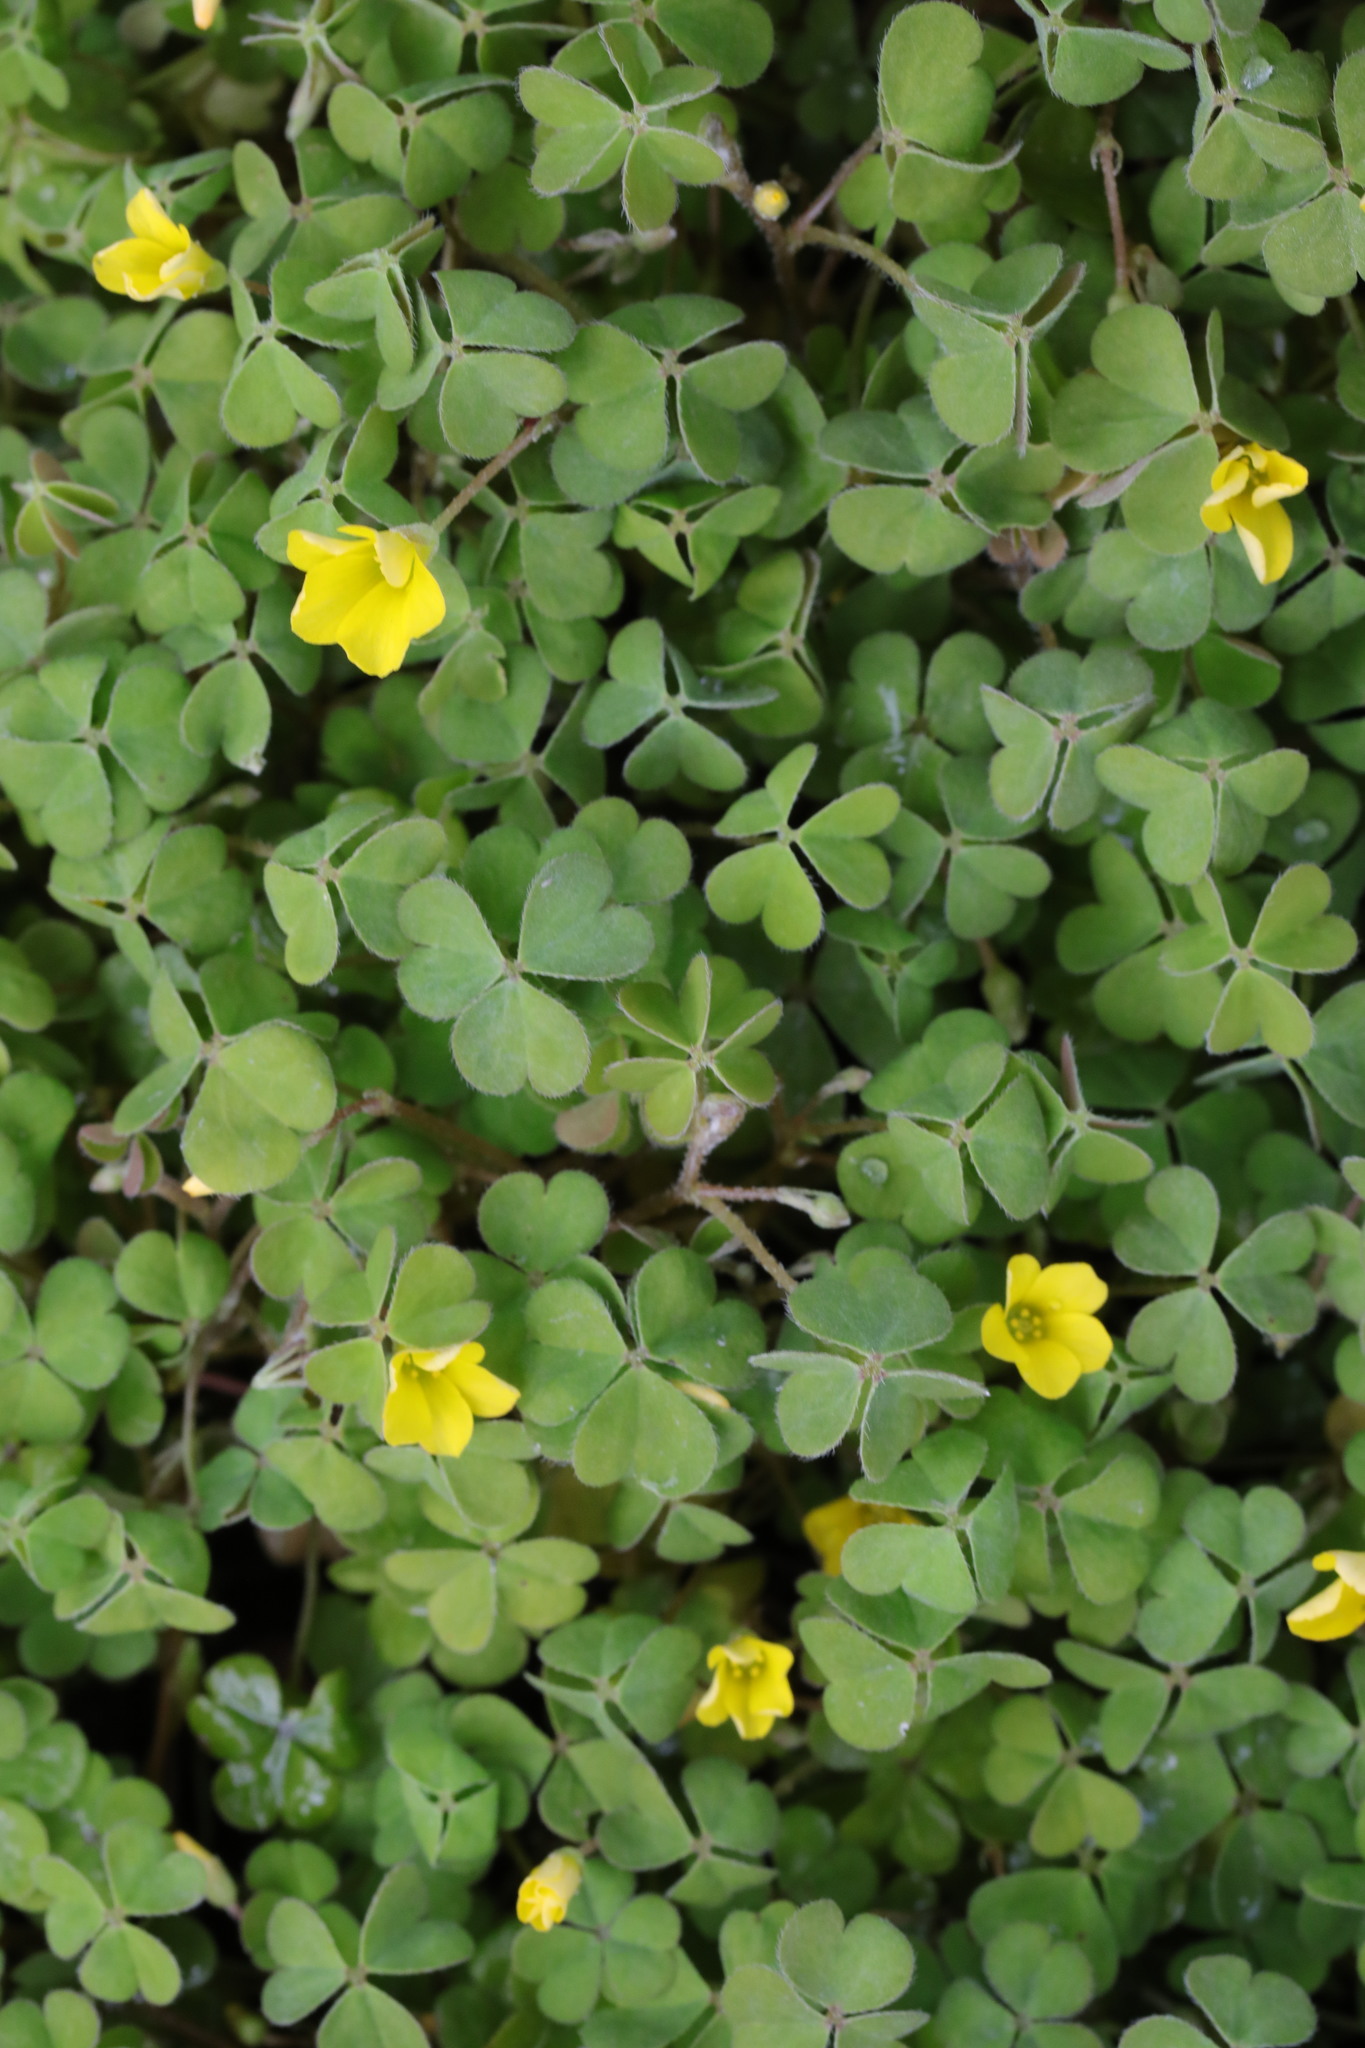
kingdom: Plantae
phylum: Tracheophyta
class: Magnoliopsida
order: Oxalidales
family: Oxalidaceae
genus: Oxalis
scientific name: Oxalis corniculata
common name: Procumbent yellow-sorrel
